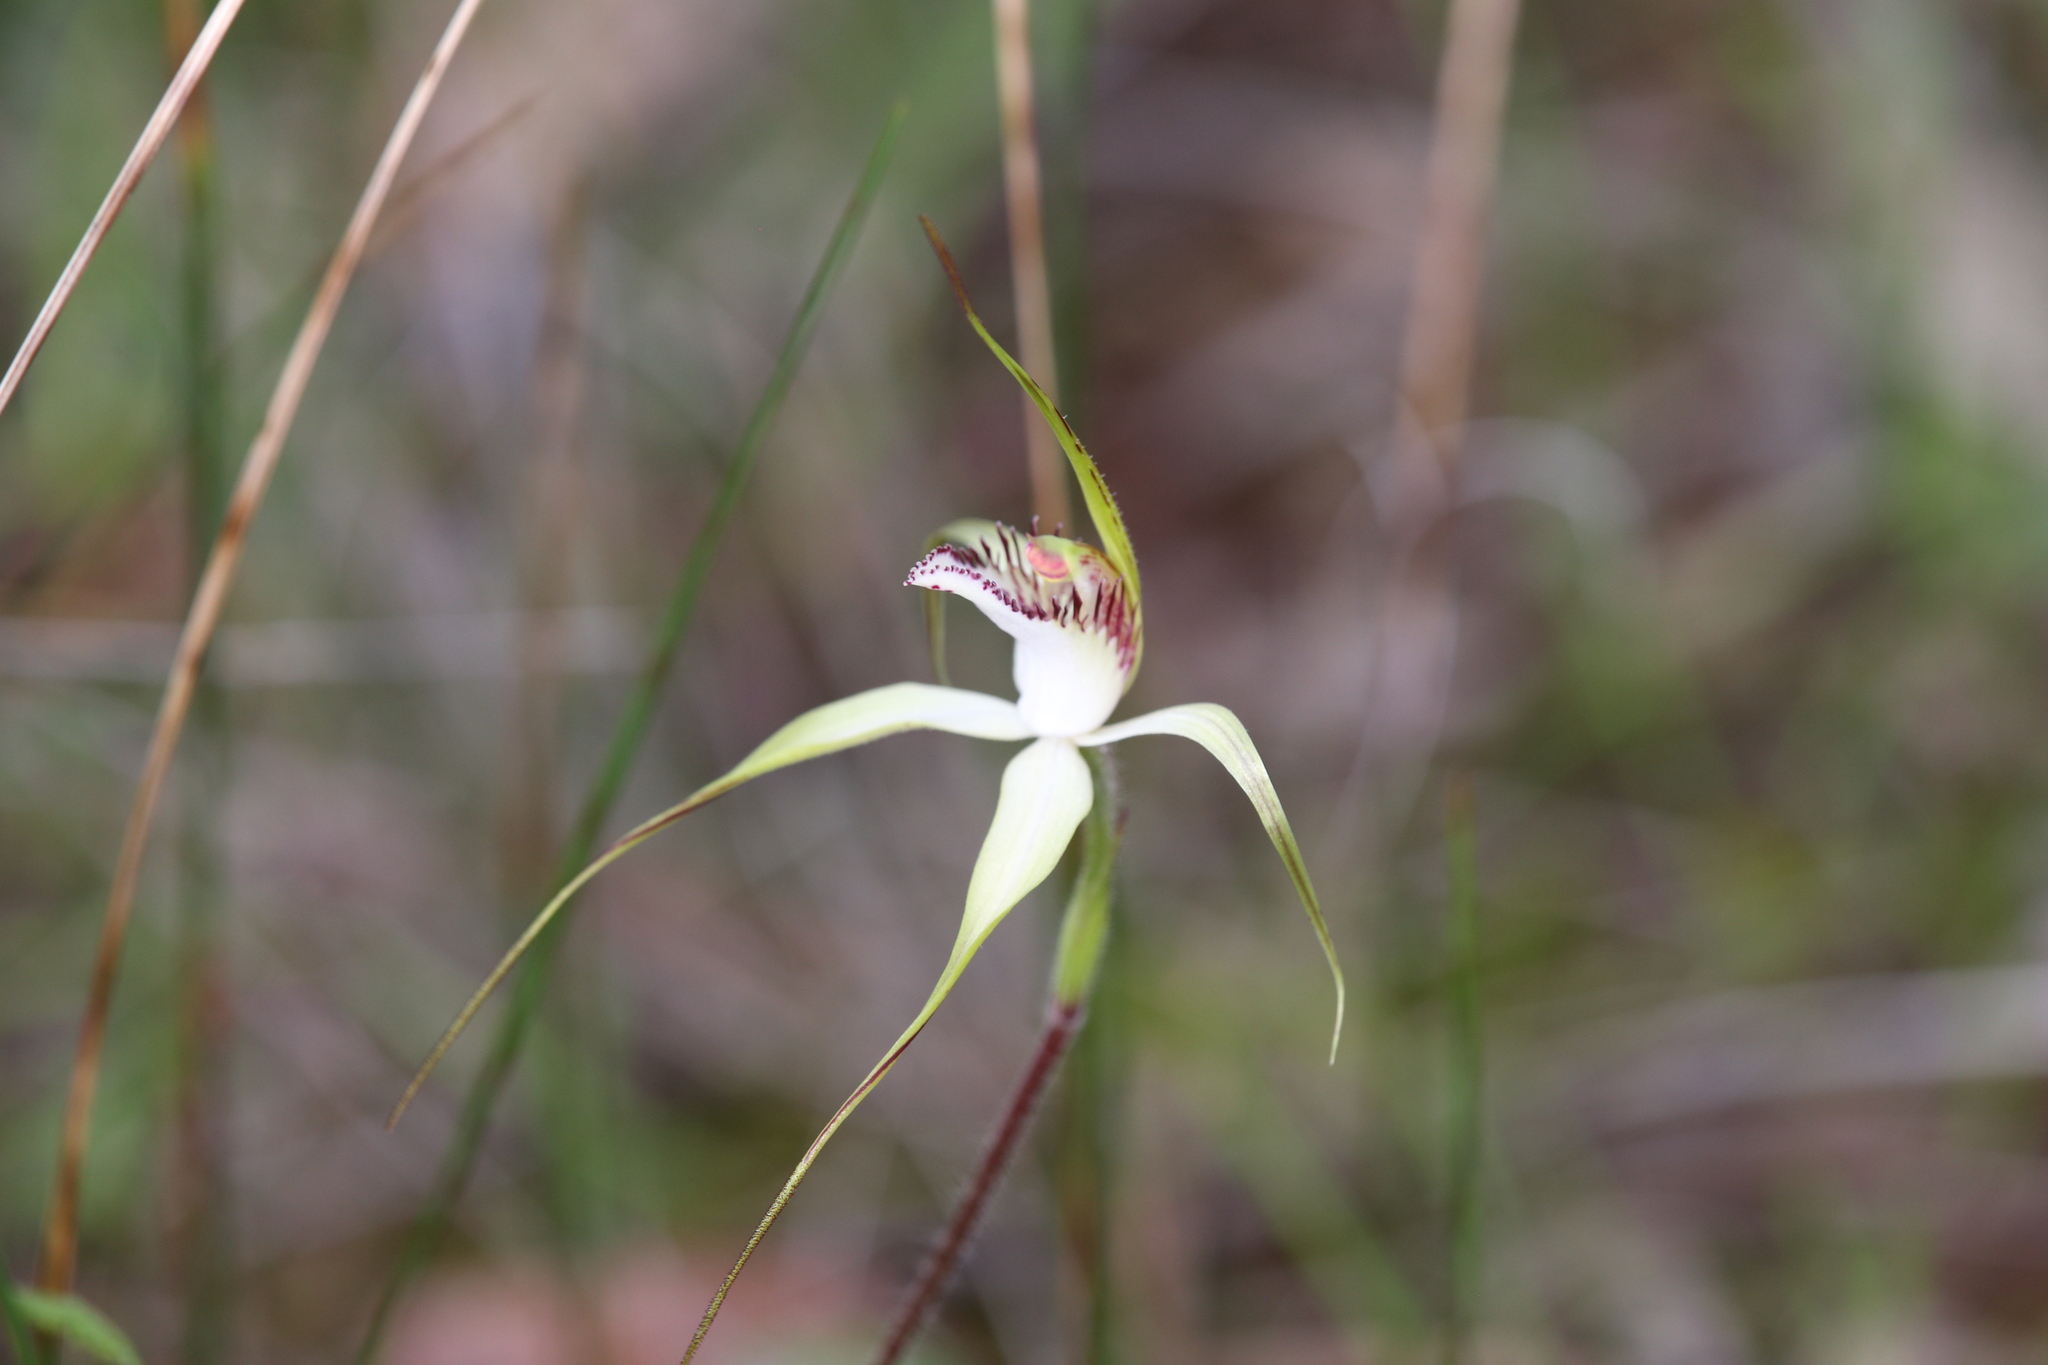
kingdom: Plantae
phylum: Tracheophyta
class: Liliopsida
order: Asparagales
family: Orchidaceae
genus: Caladenia
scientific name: Caladenia multiplex
